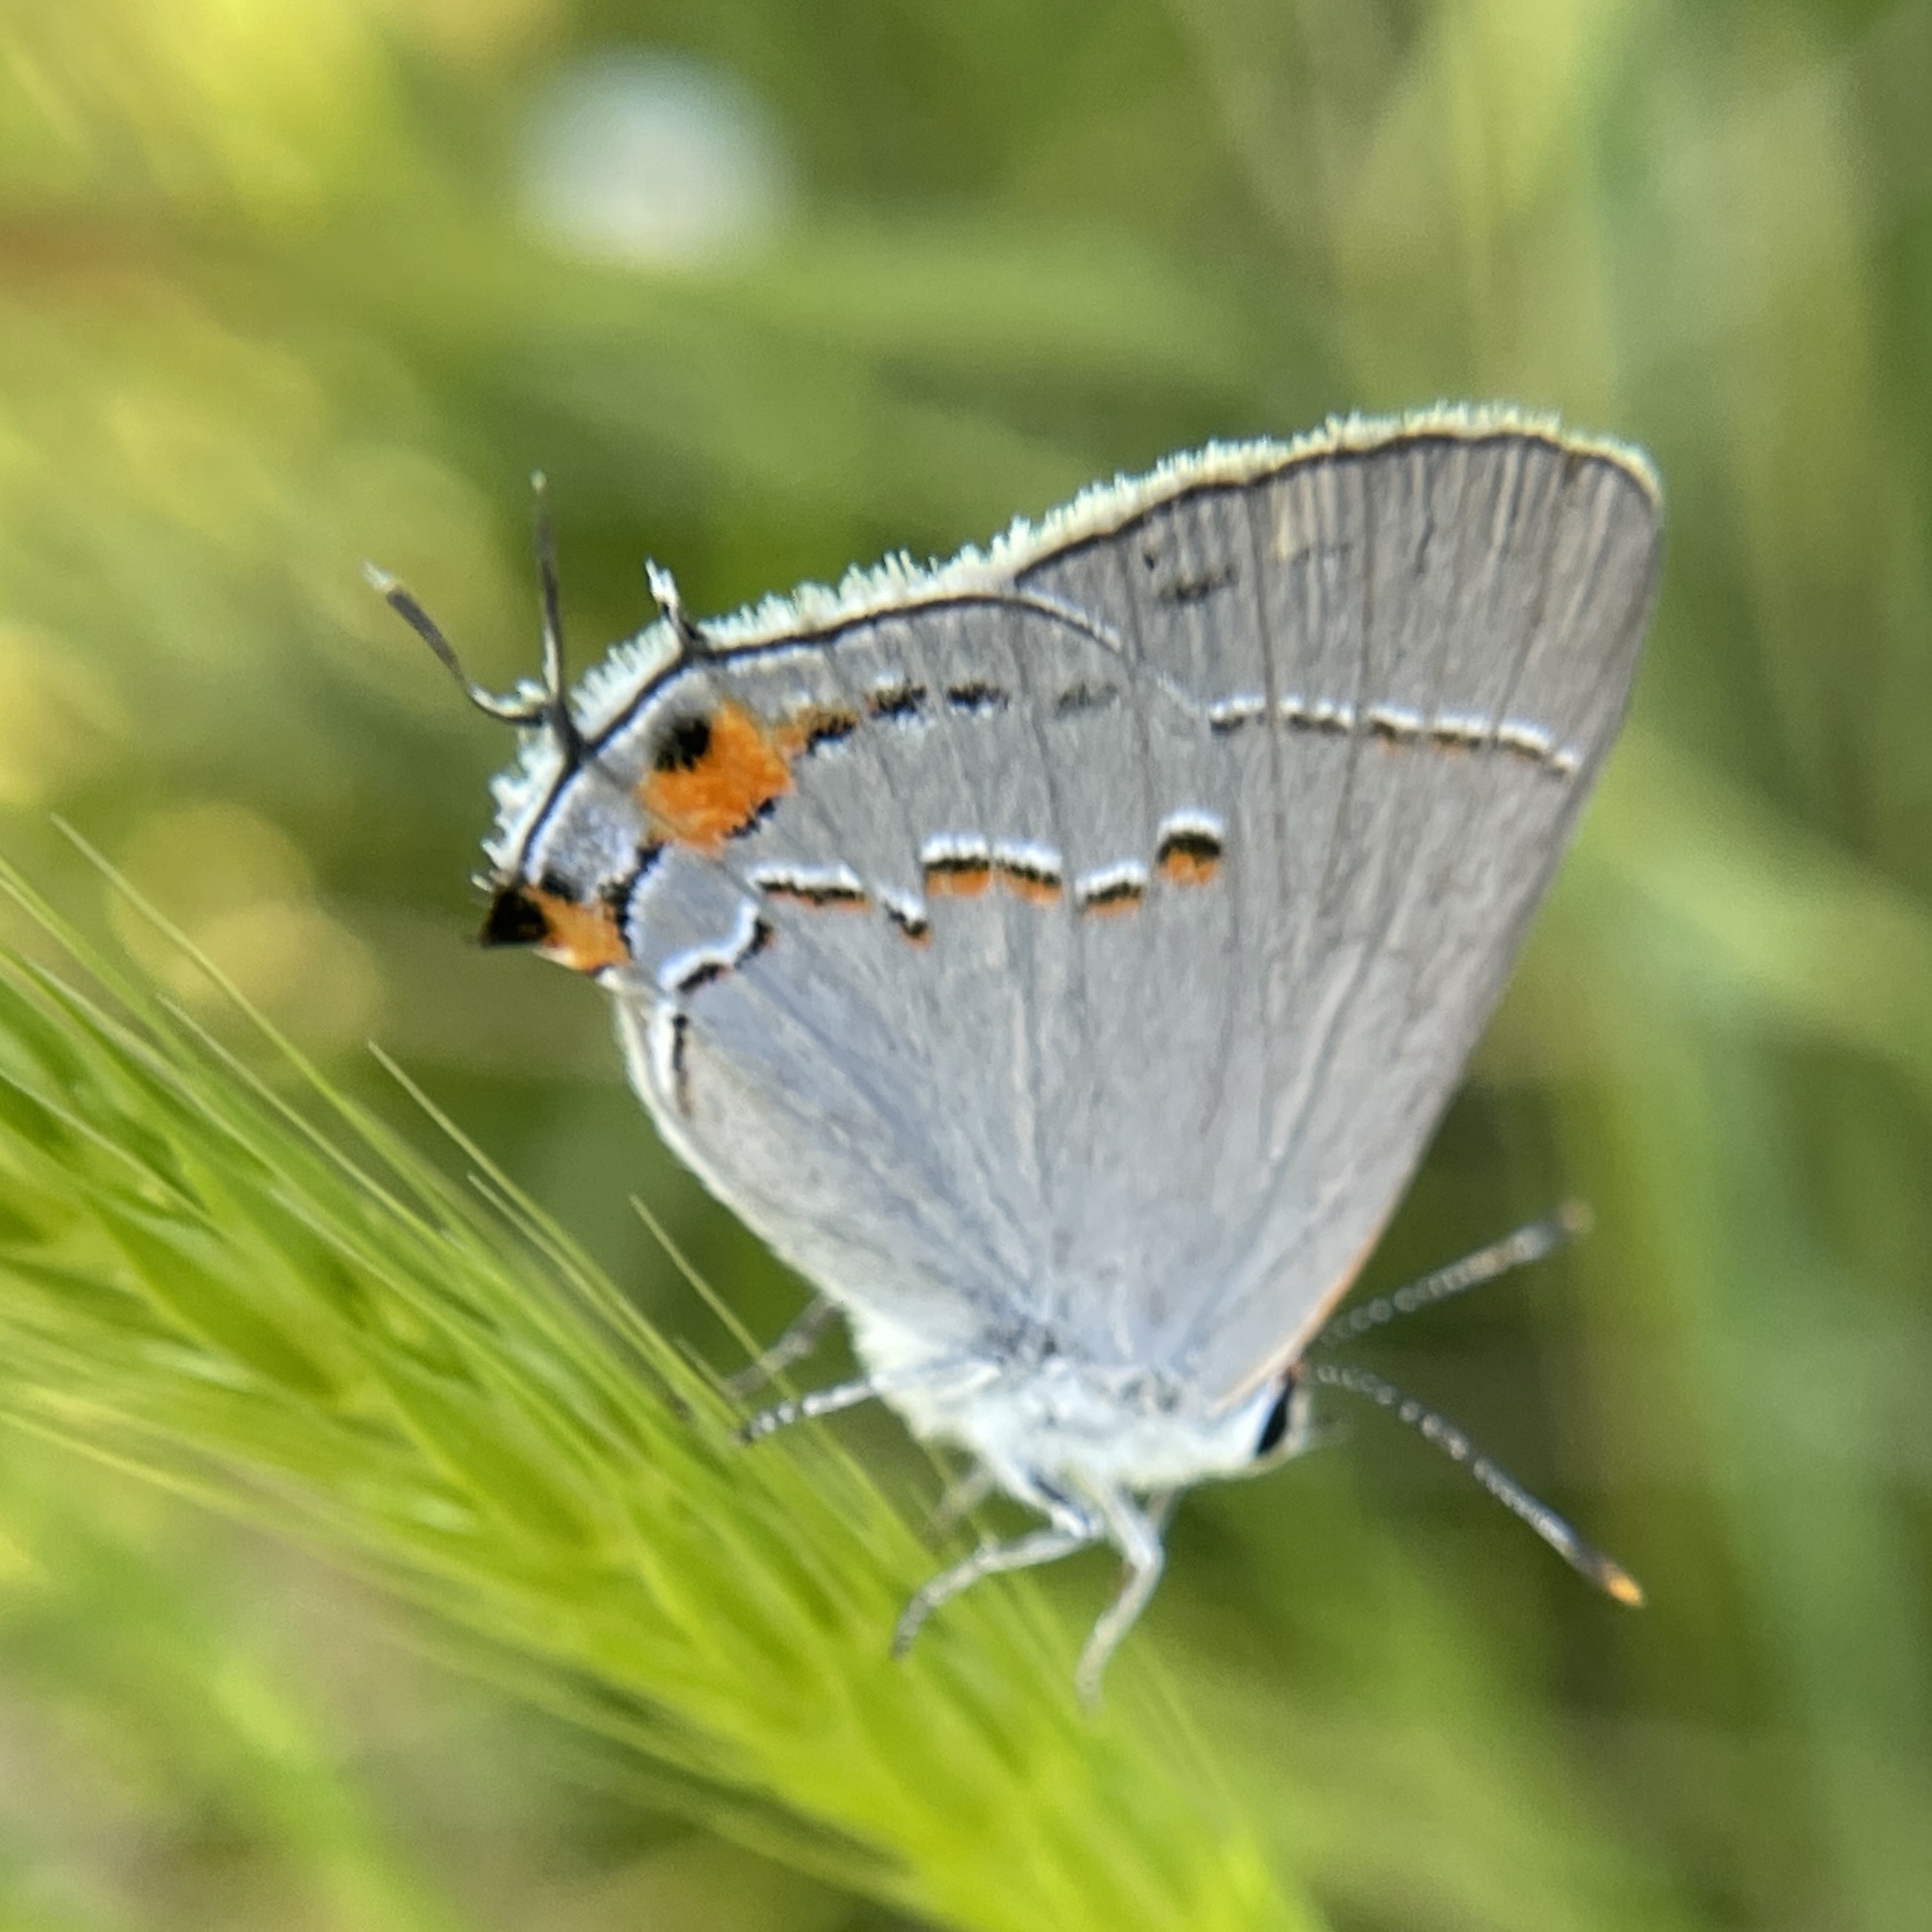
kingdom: Animalia
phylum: Arthropoda
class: Insecta
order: Lepidoptera
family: Lycaenidae
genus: Strymon
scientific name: Strymon melinus
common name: Gray hairstreak
